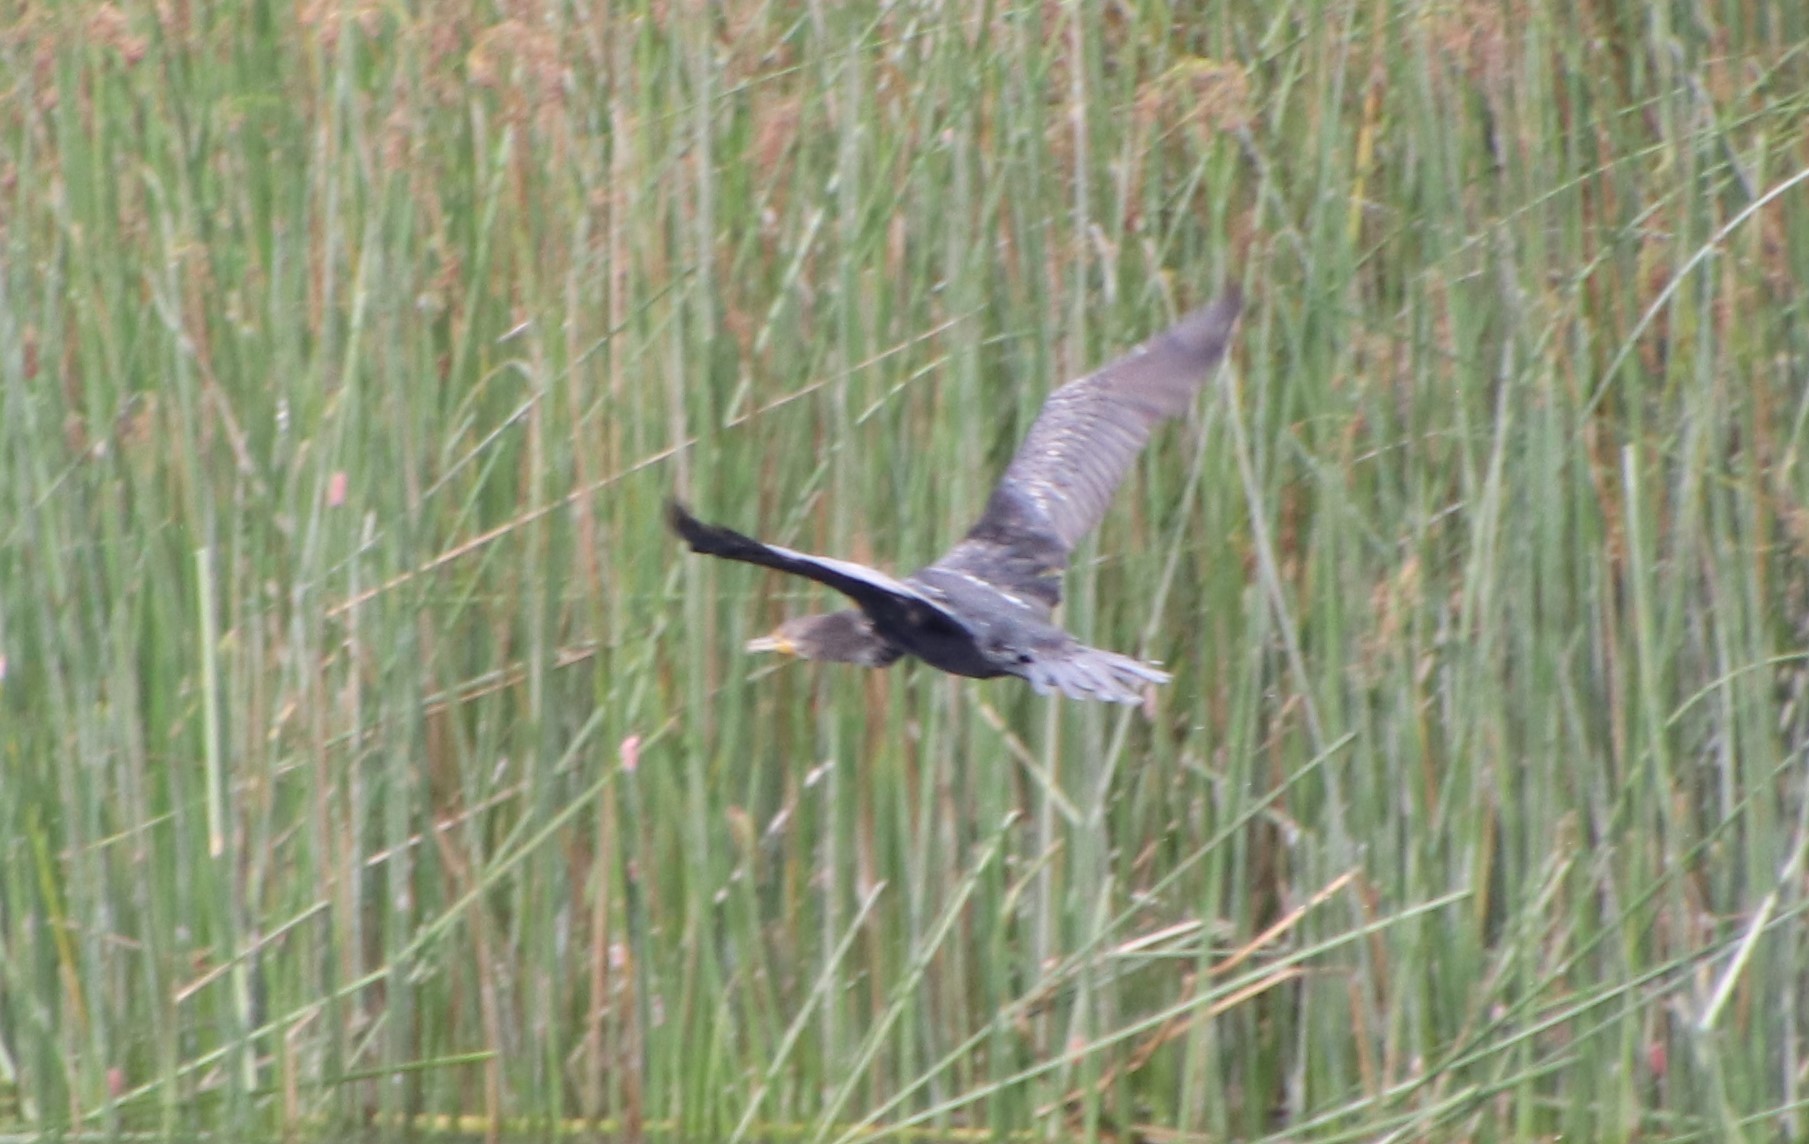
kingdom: Animalia
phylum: Chordata
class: Aves
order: Suliformes
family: Phalacrocoracidae
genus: Phalacrocorax
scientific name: Phalacrocorax auritus
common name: Double-crested cormorant
